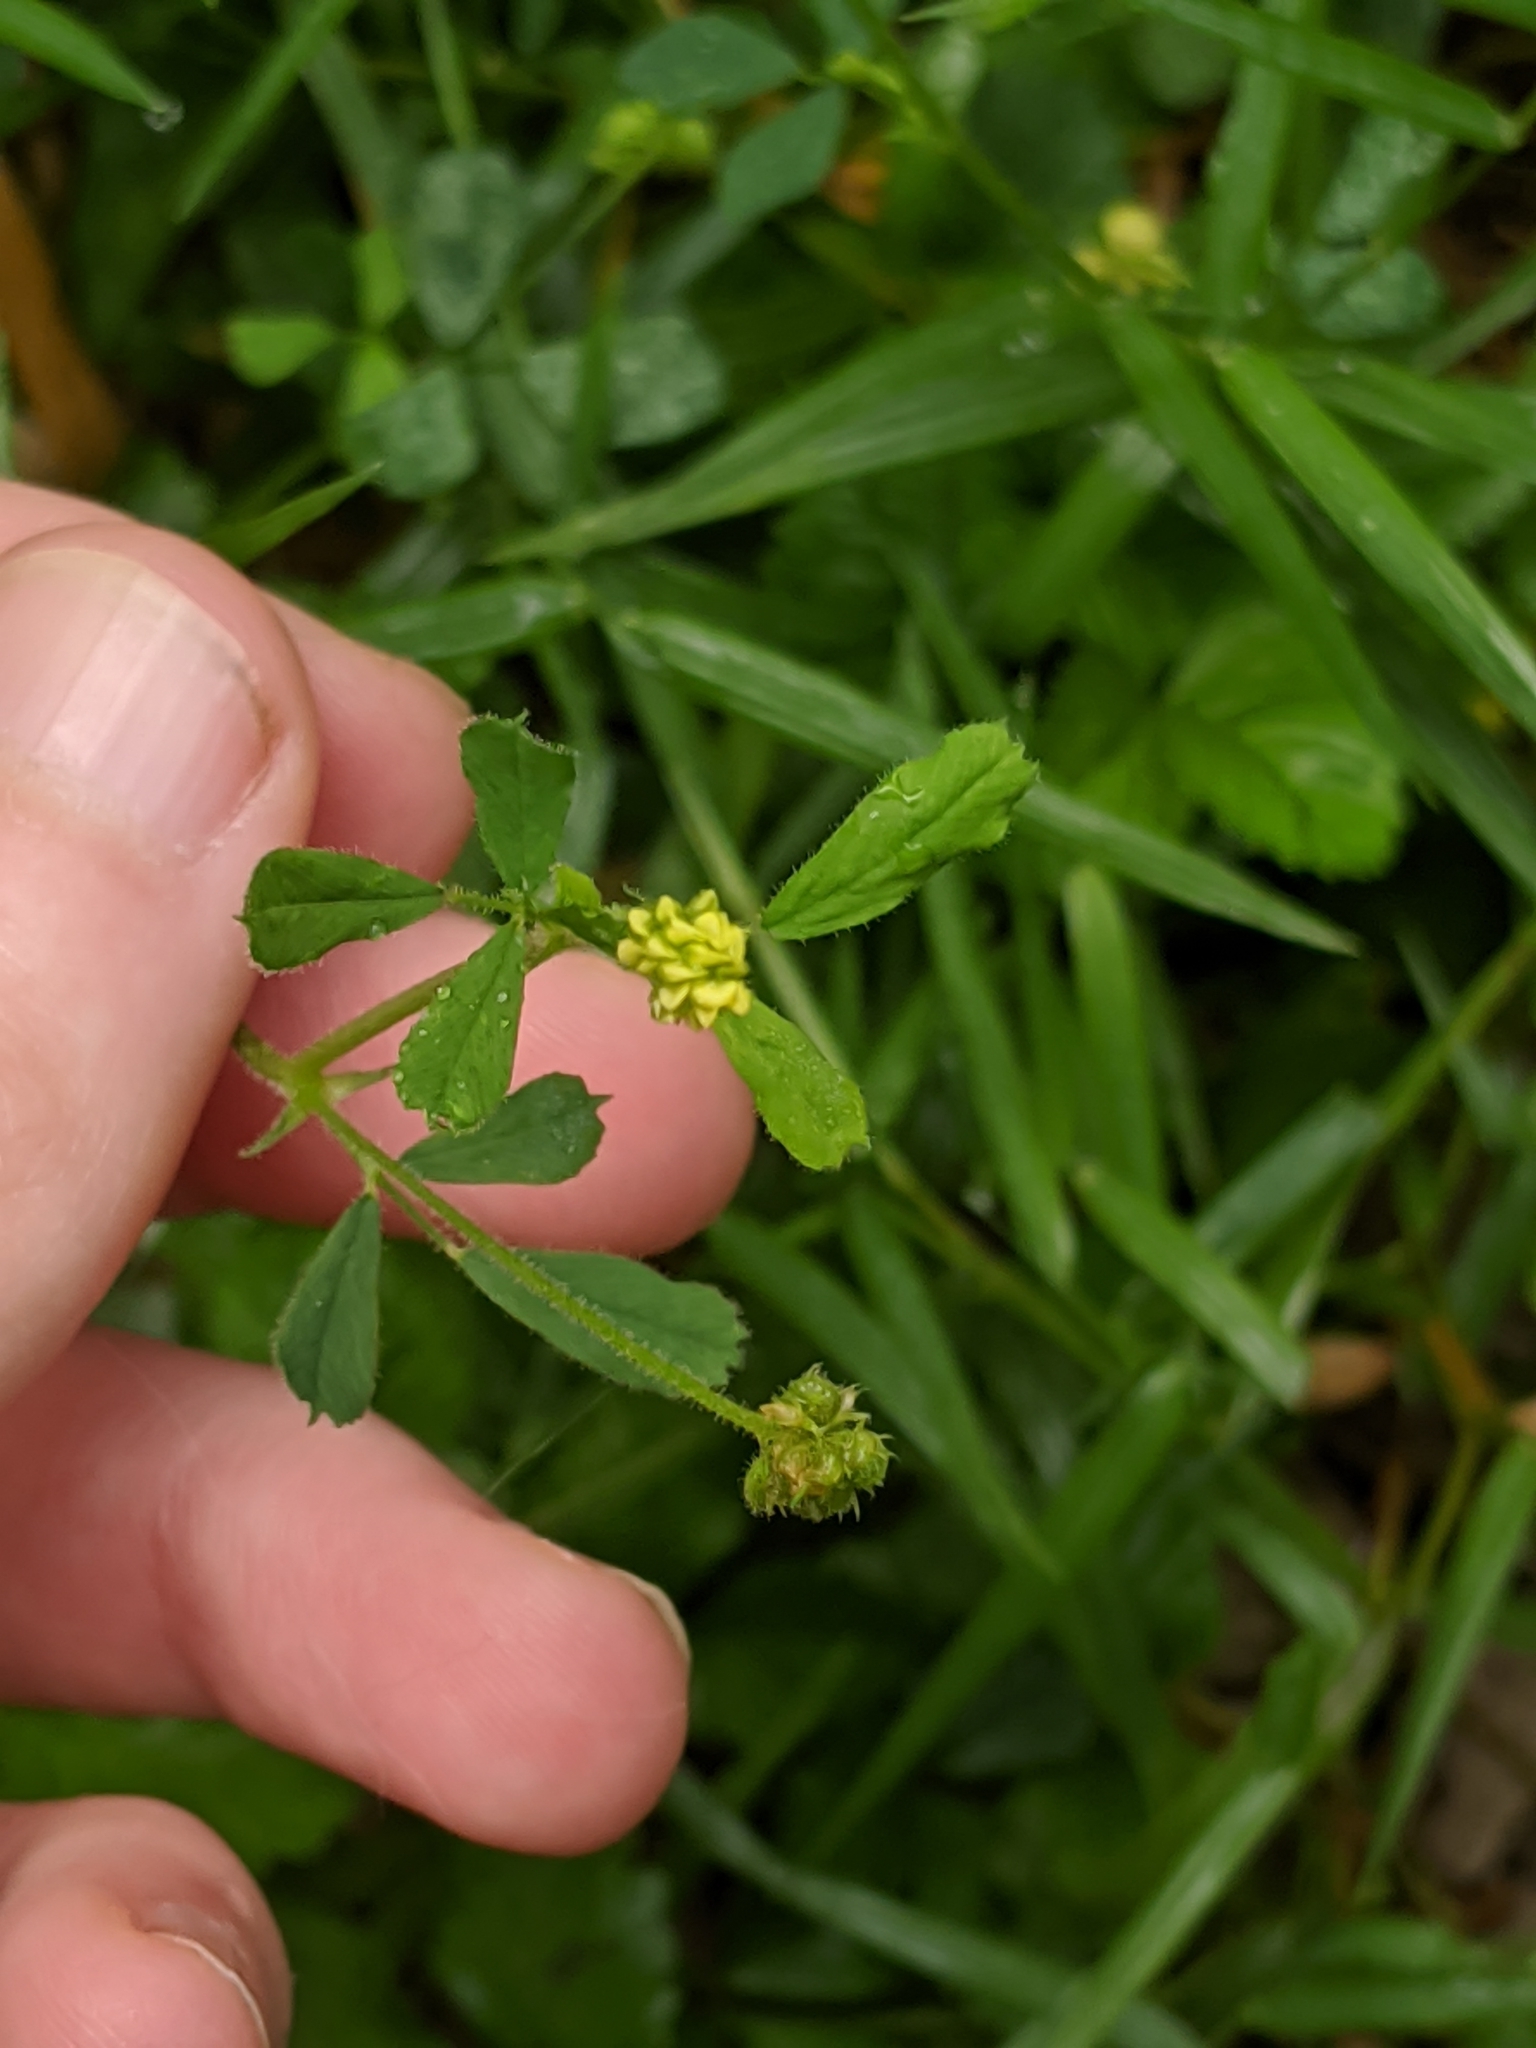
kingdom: Plantae
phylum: Tracheophyta
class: Magnoliopsida
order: Fabales
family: Fabaceae
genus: Medicago
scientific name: Medicago lupulina
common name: Black medick
